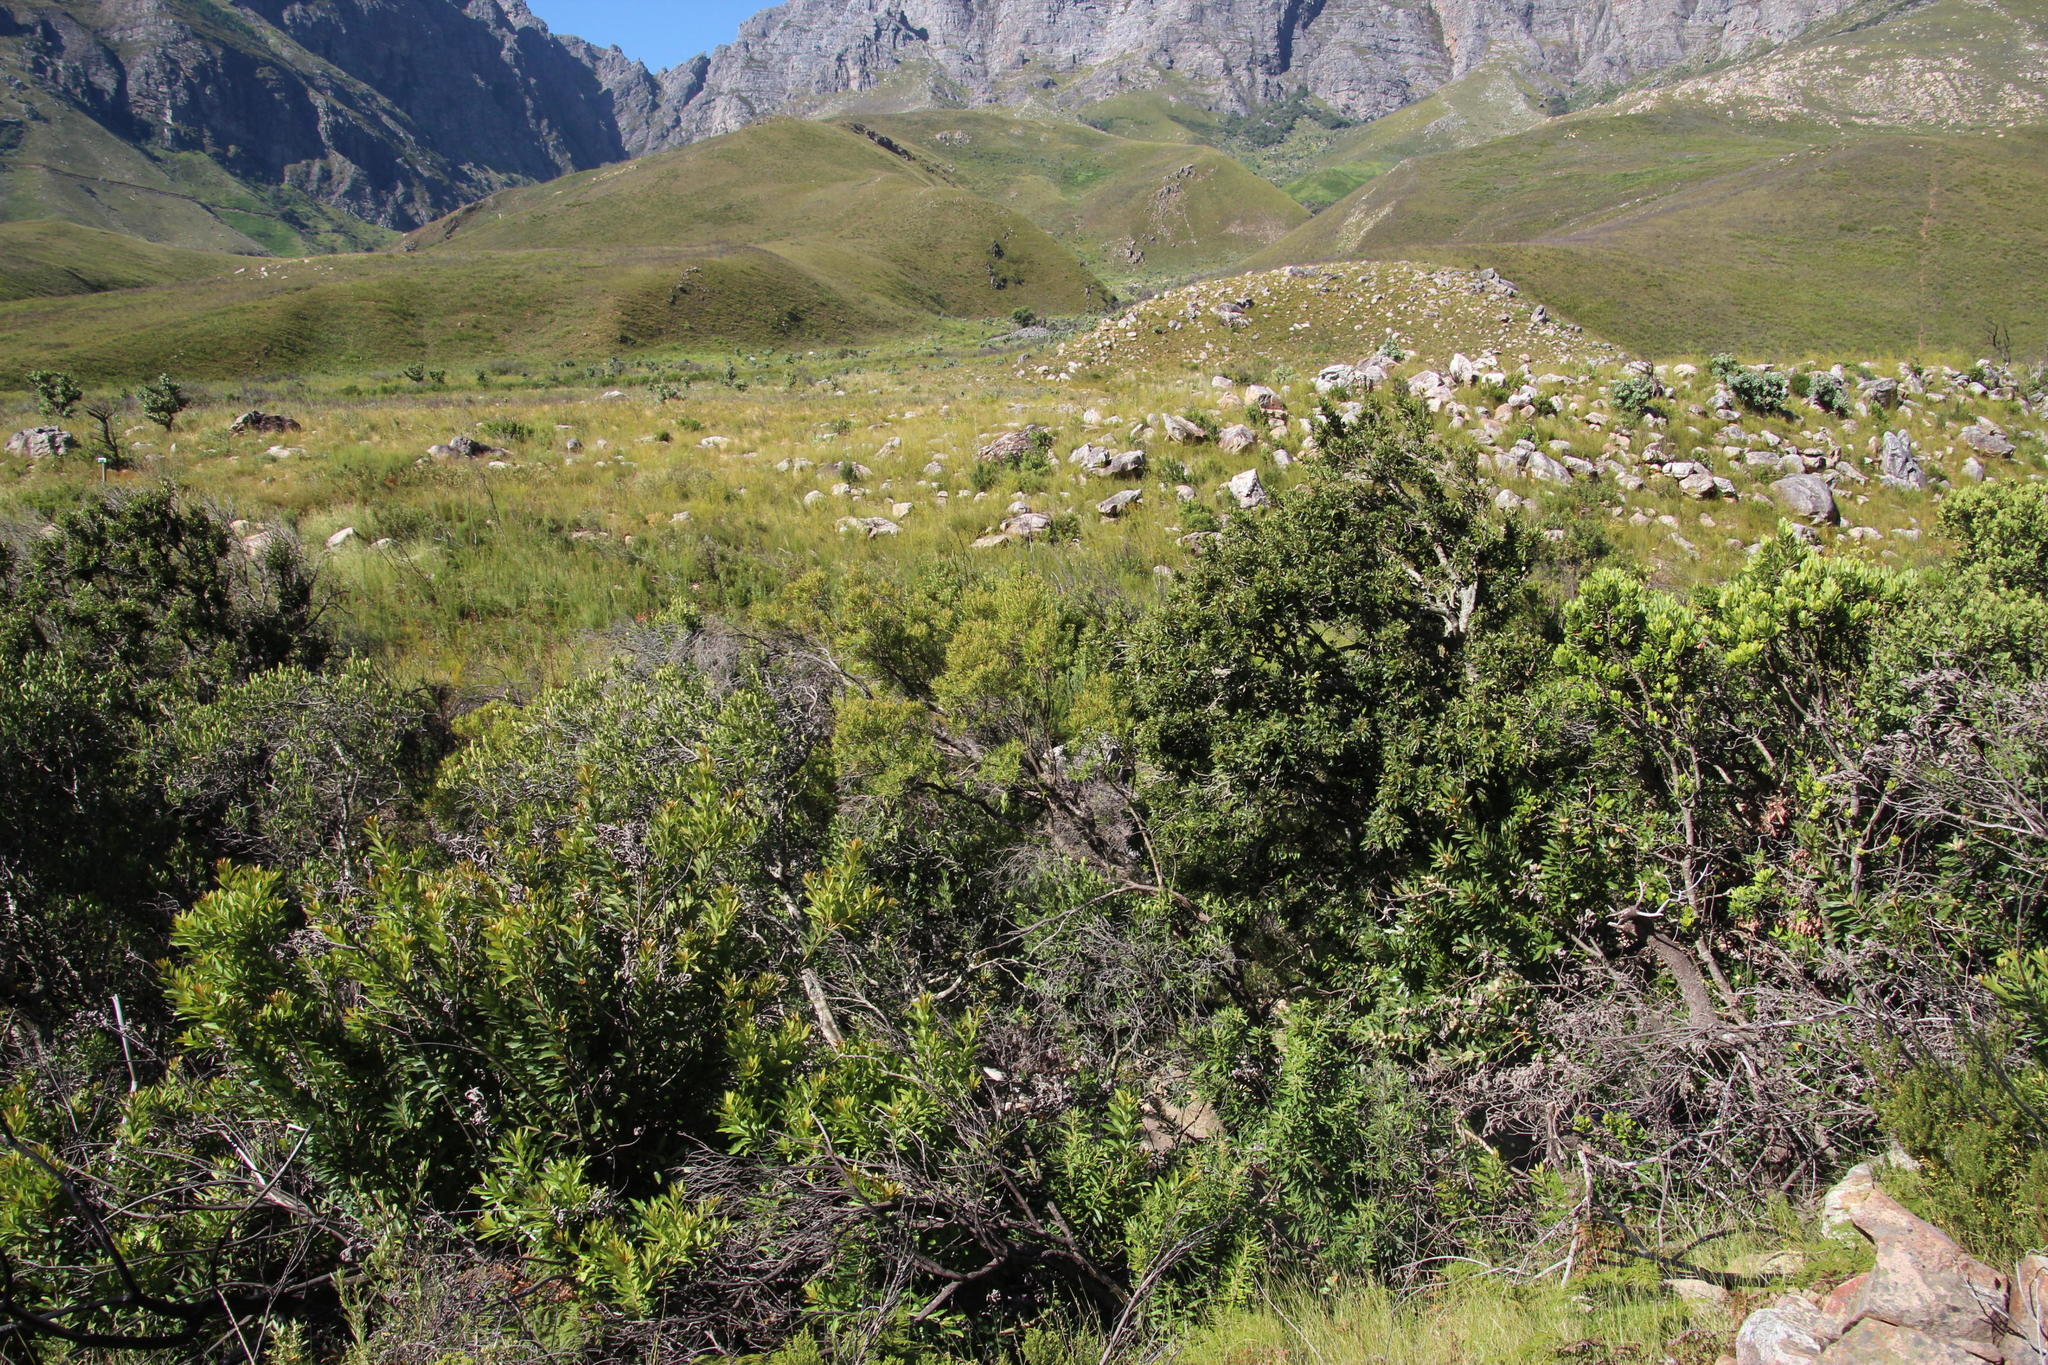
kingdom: Plantae
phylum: Tracheophyta
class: Magnoliopsida
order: Myrtales
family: Myrtaceae
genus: Callistemon
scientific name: Callistemon lanceolatus
